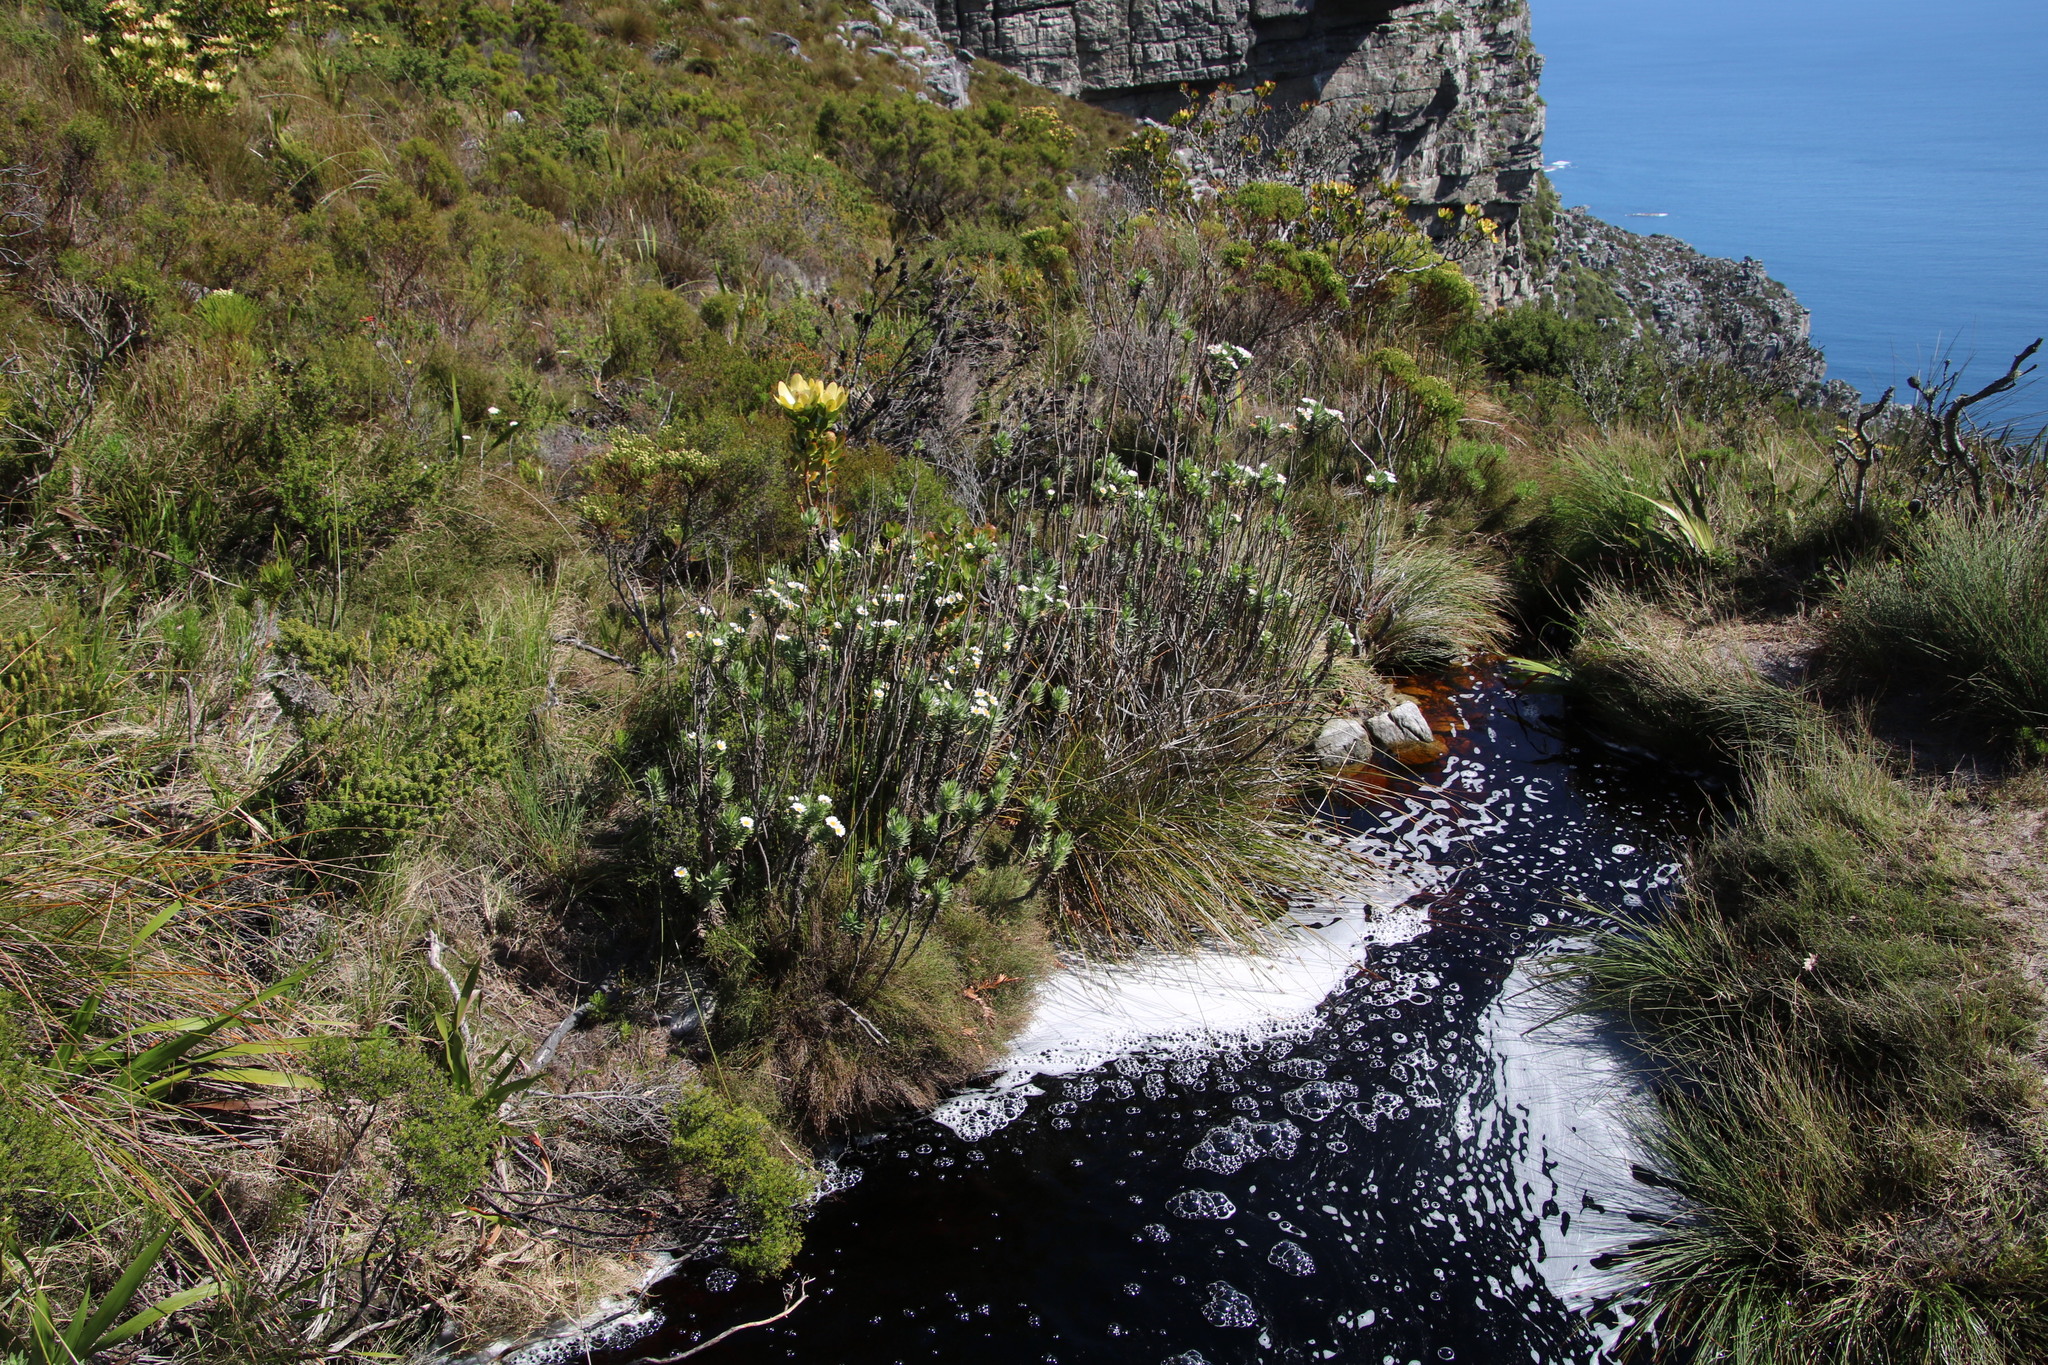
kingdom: Plantae
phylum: Tracheophyta
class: Magnoliopsida
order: Asterales
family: Asteraceae
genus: Osmitopsis
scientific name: Osmitopsis asteriscoides
